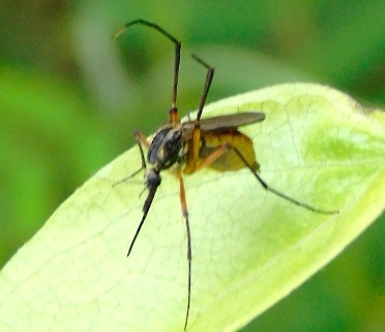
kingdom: Animalia
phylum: Arthropoda
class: Insecta
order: Diptera
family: Culicidae
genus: Psorophora
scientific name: Psorophora longipalpus
